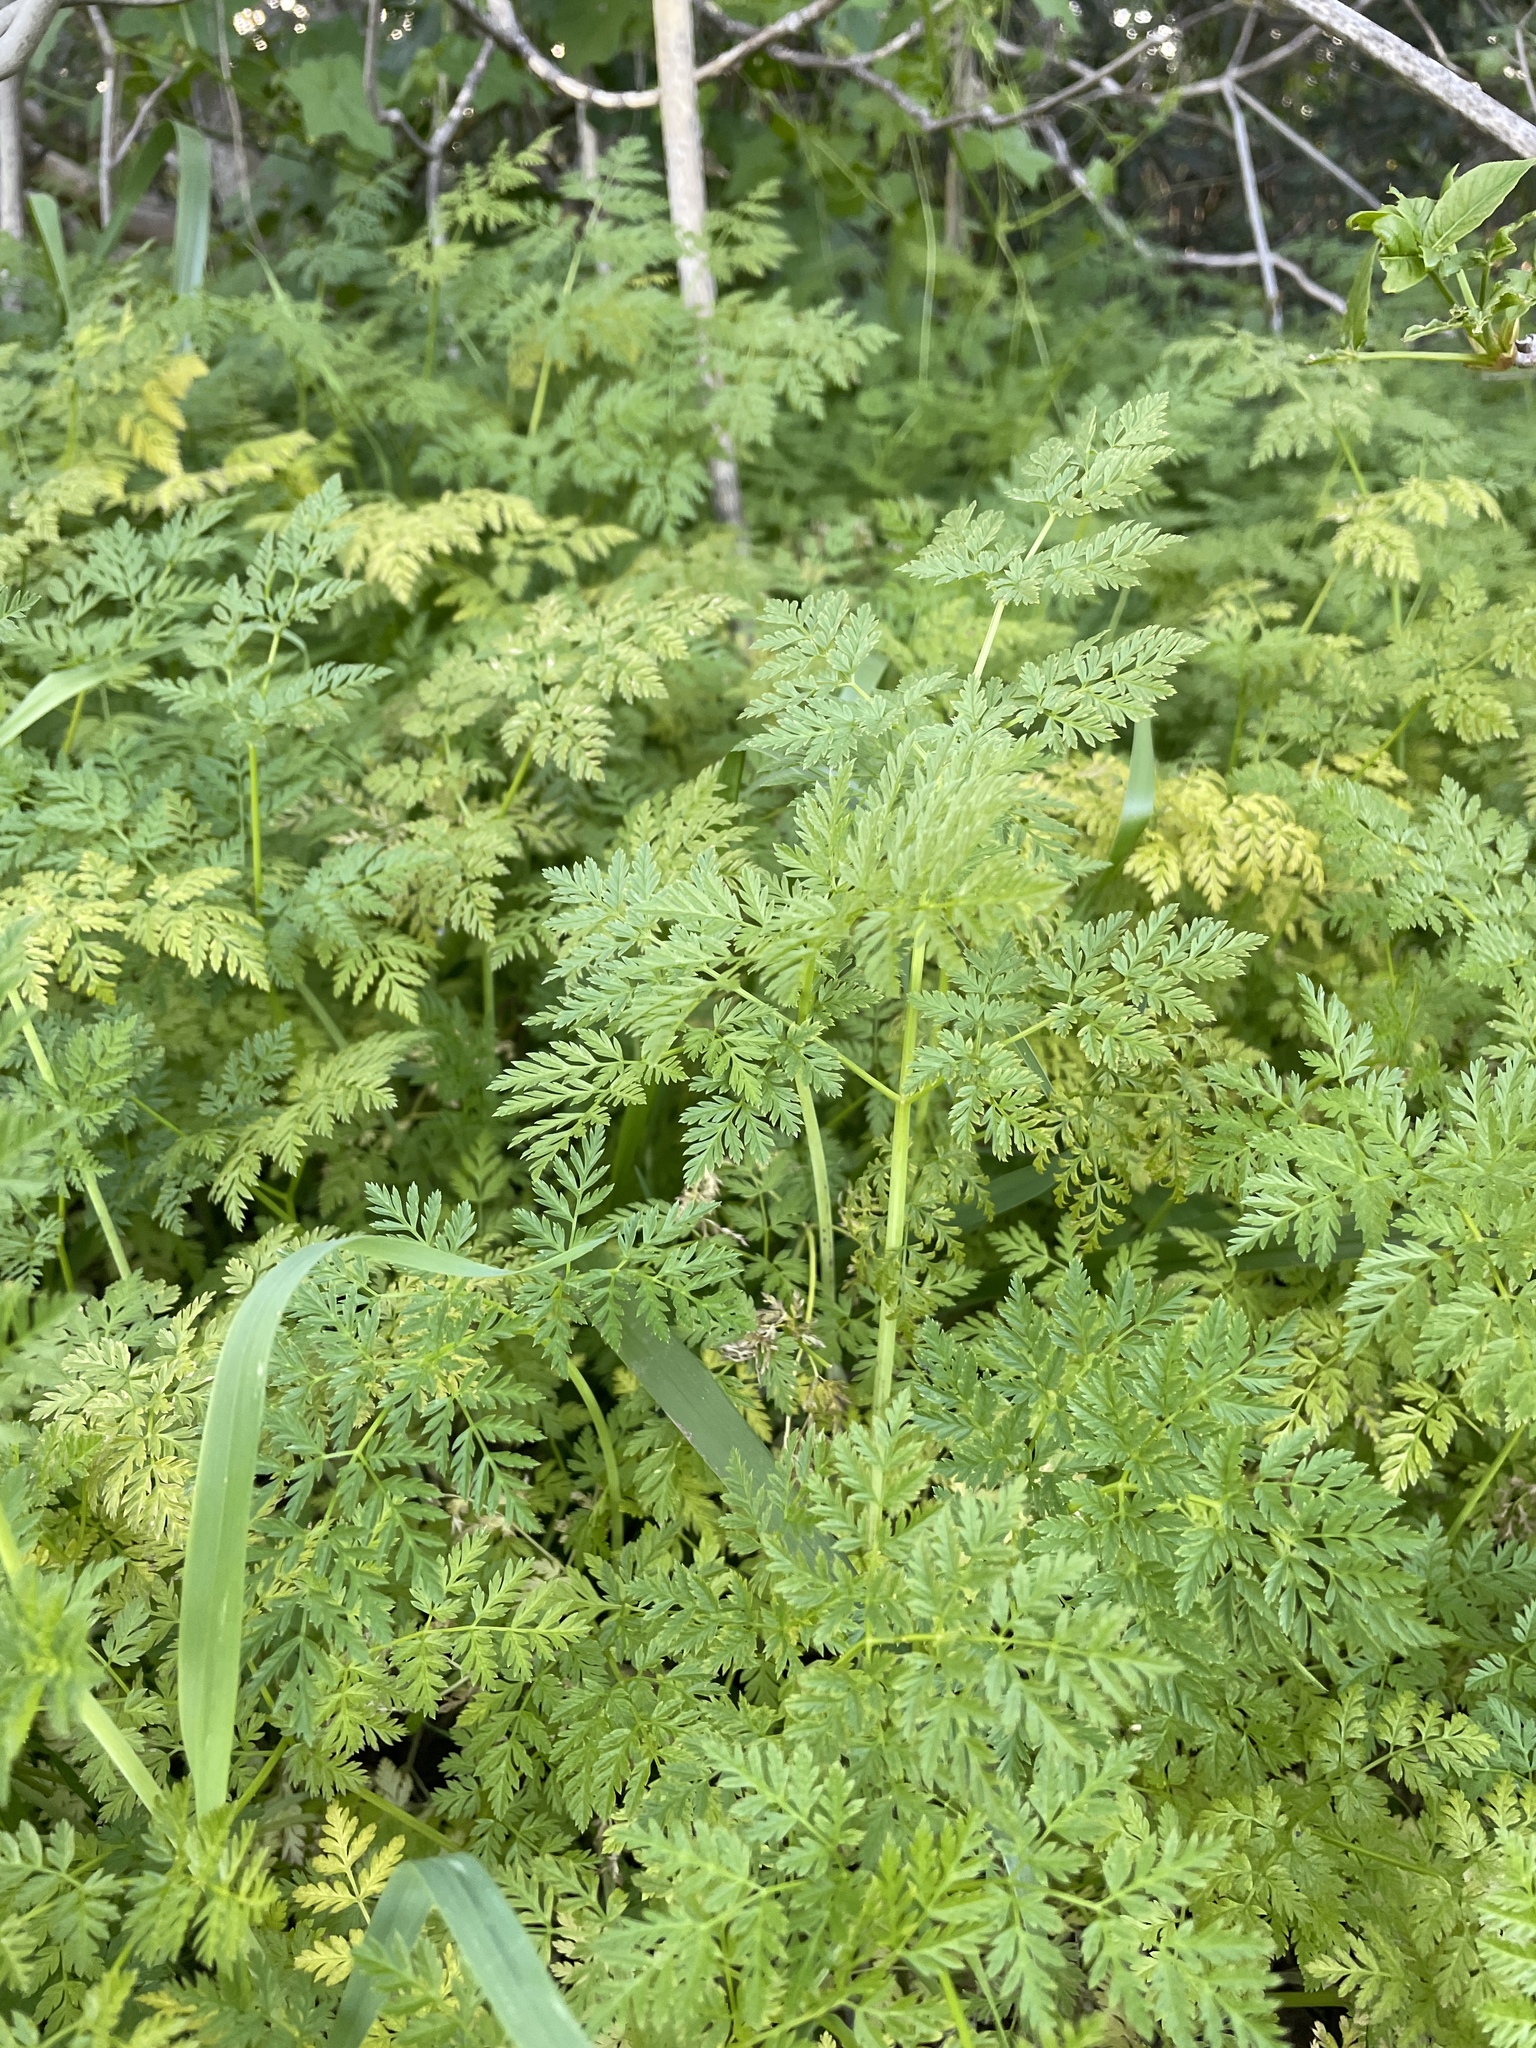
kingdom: Plantae
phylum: Tracheophyta
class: Magnoliopsida
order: Apiales
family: Apiaceae
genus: Conium
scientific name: Conium maculatum
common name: Hemlock
